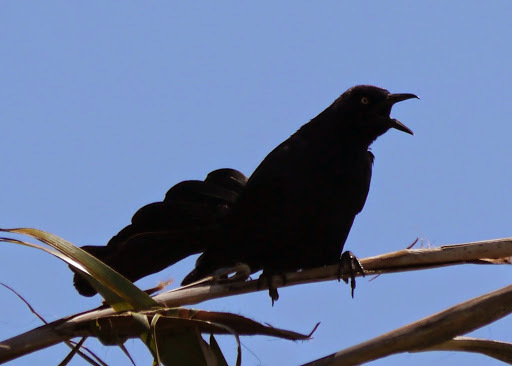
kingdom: Animalia
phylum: Chordata
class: Aves
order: Passeriformes
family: Icteridae
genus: Quiscalus
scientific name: Quiscalus mexicanus
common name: Great-tailed grackle
